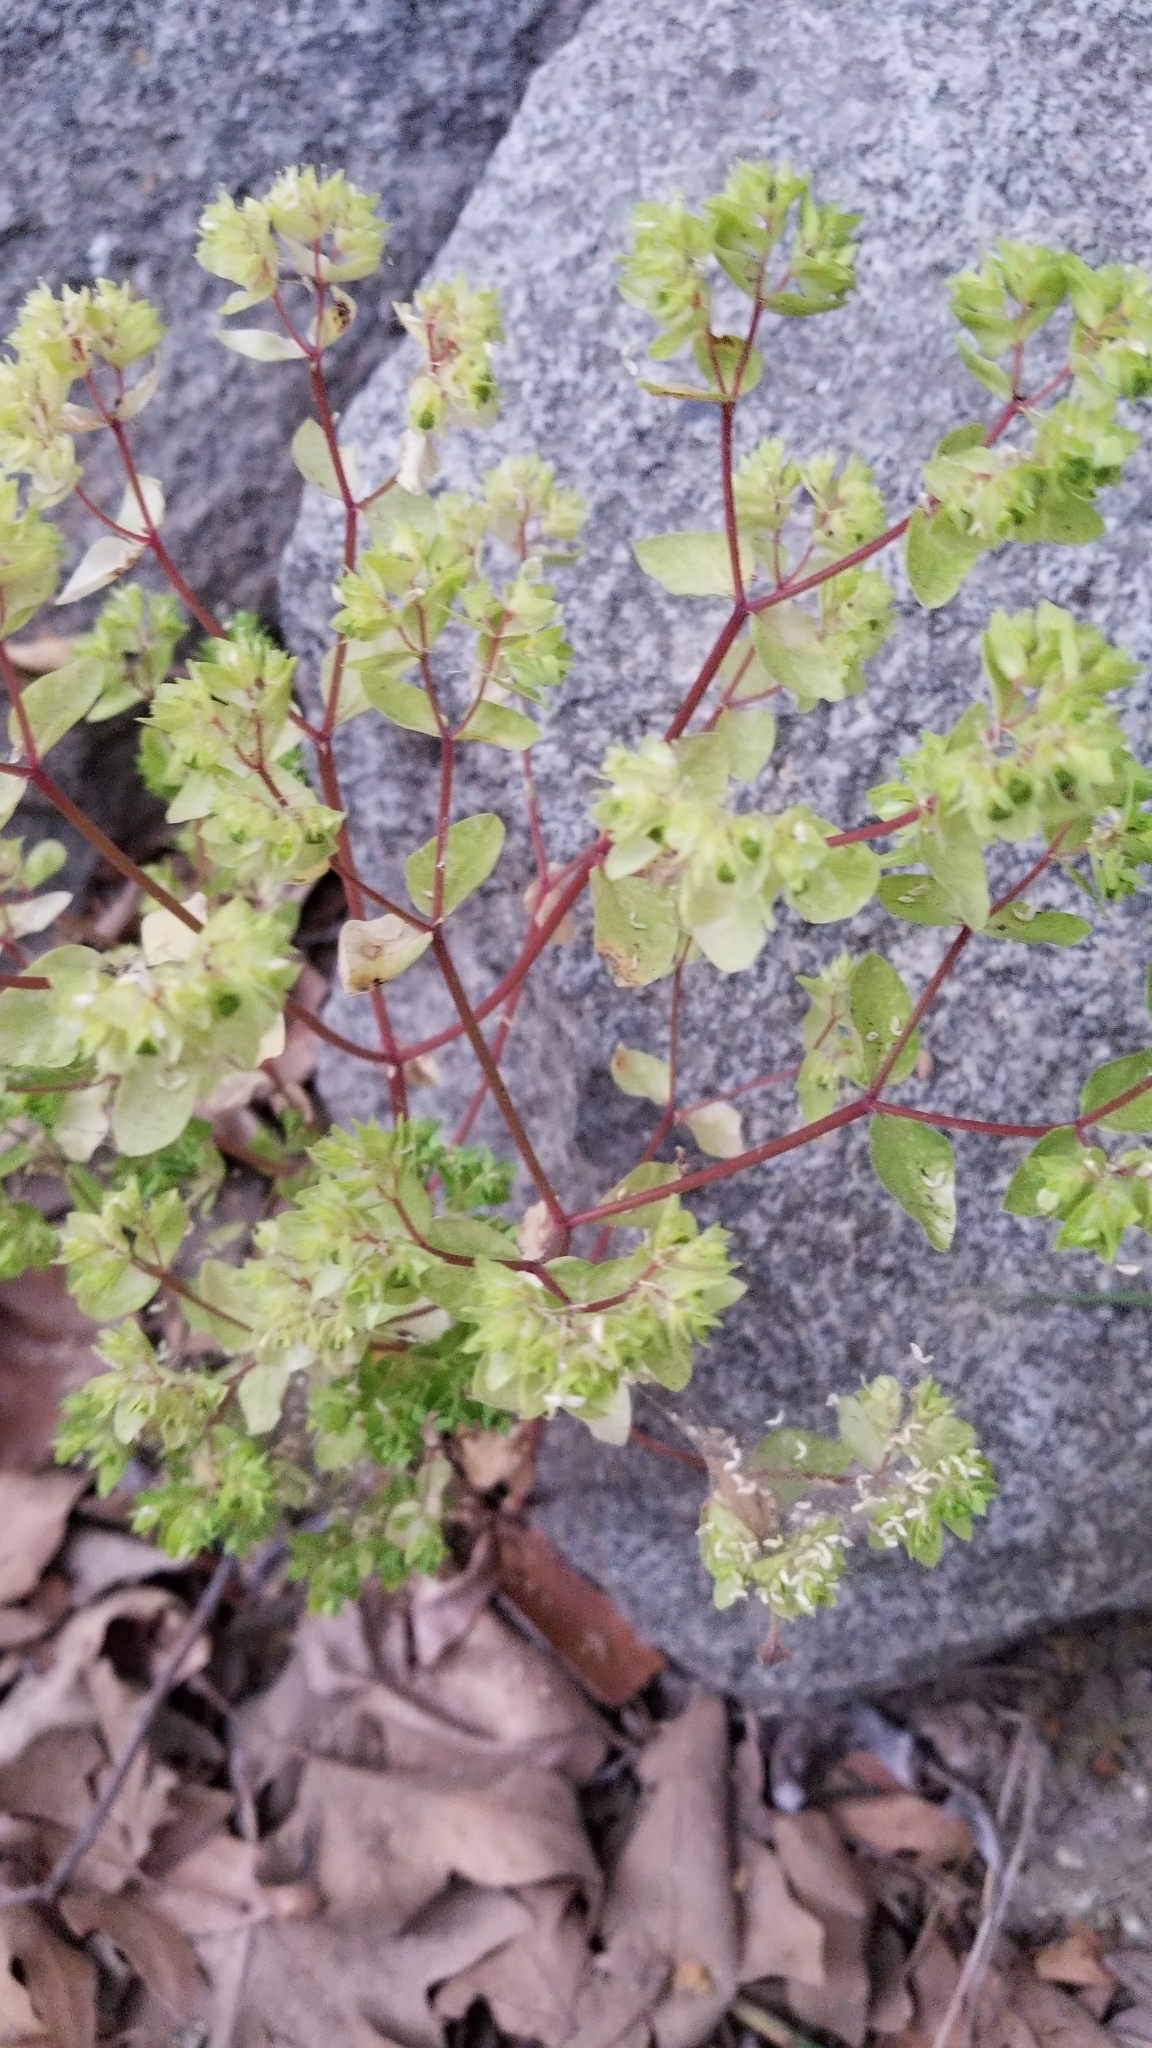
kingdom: Plantae
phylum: Tracheophyta
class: Magnoliopsida
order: Malpighiales
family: Euphorbiaceae
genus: Euphorbia
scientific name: Euphorbia peplus
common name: Petty spurge
